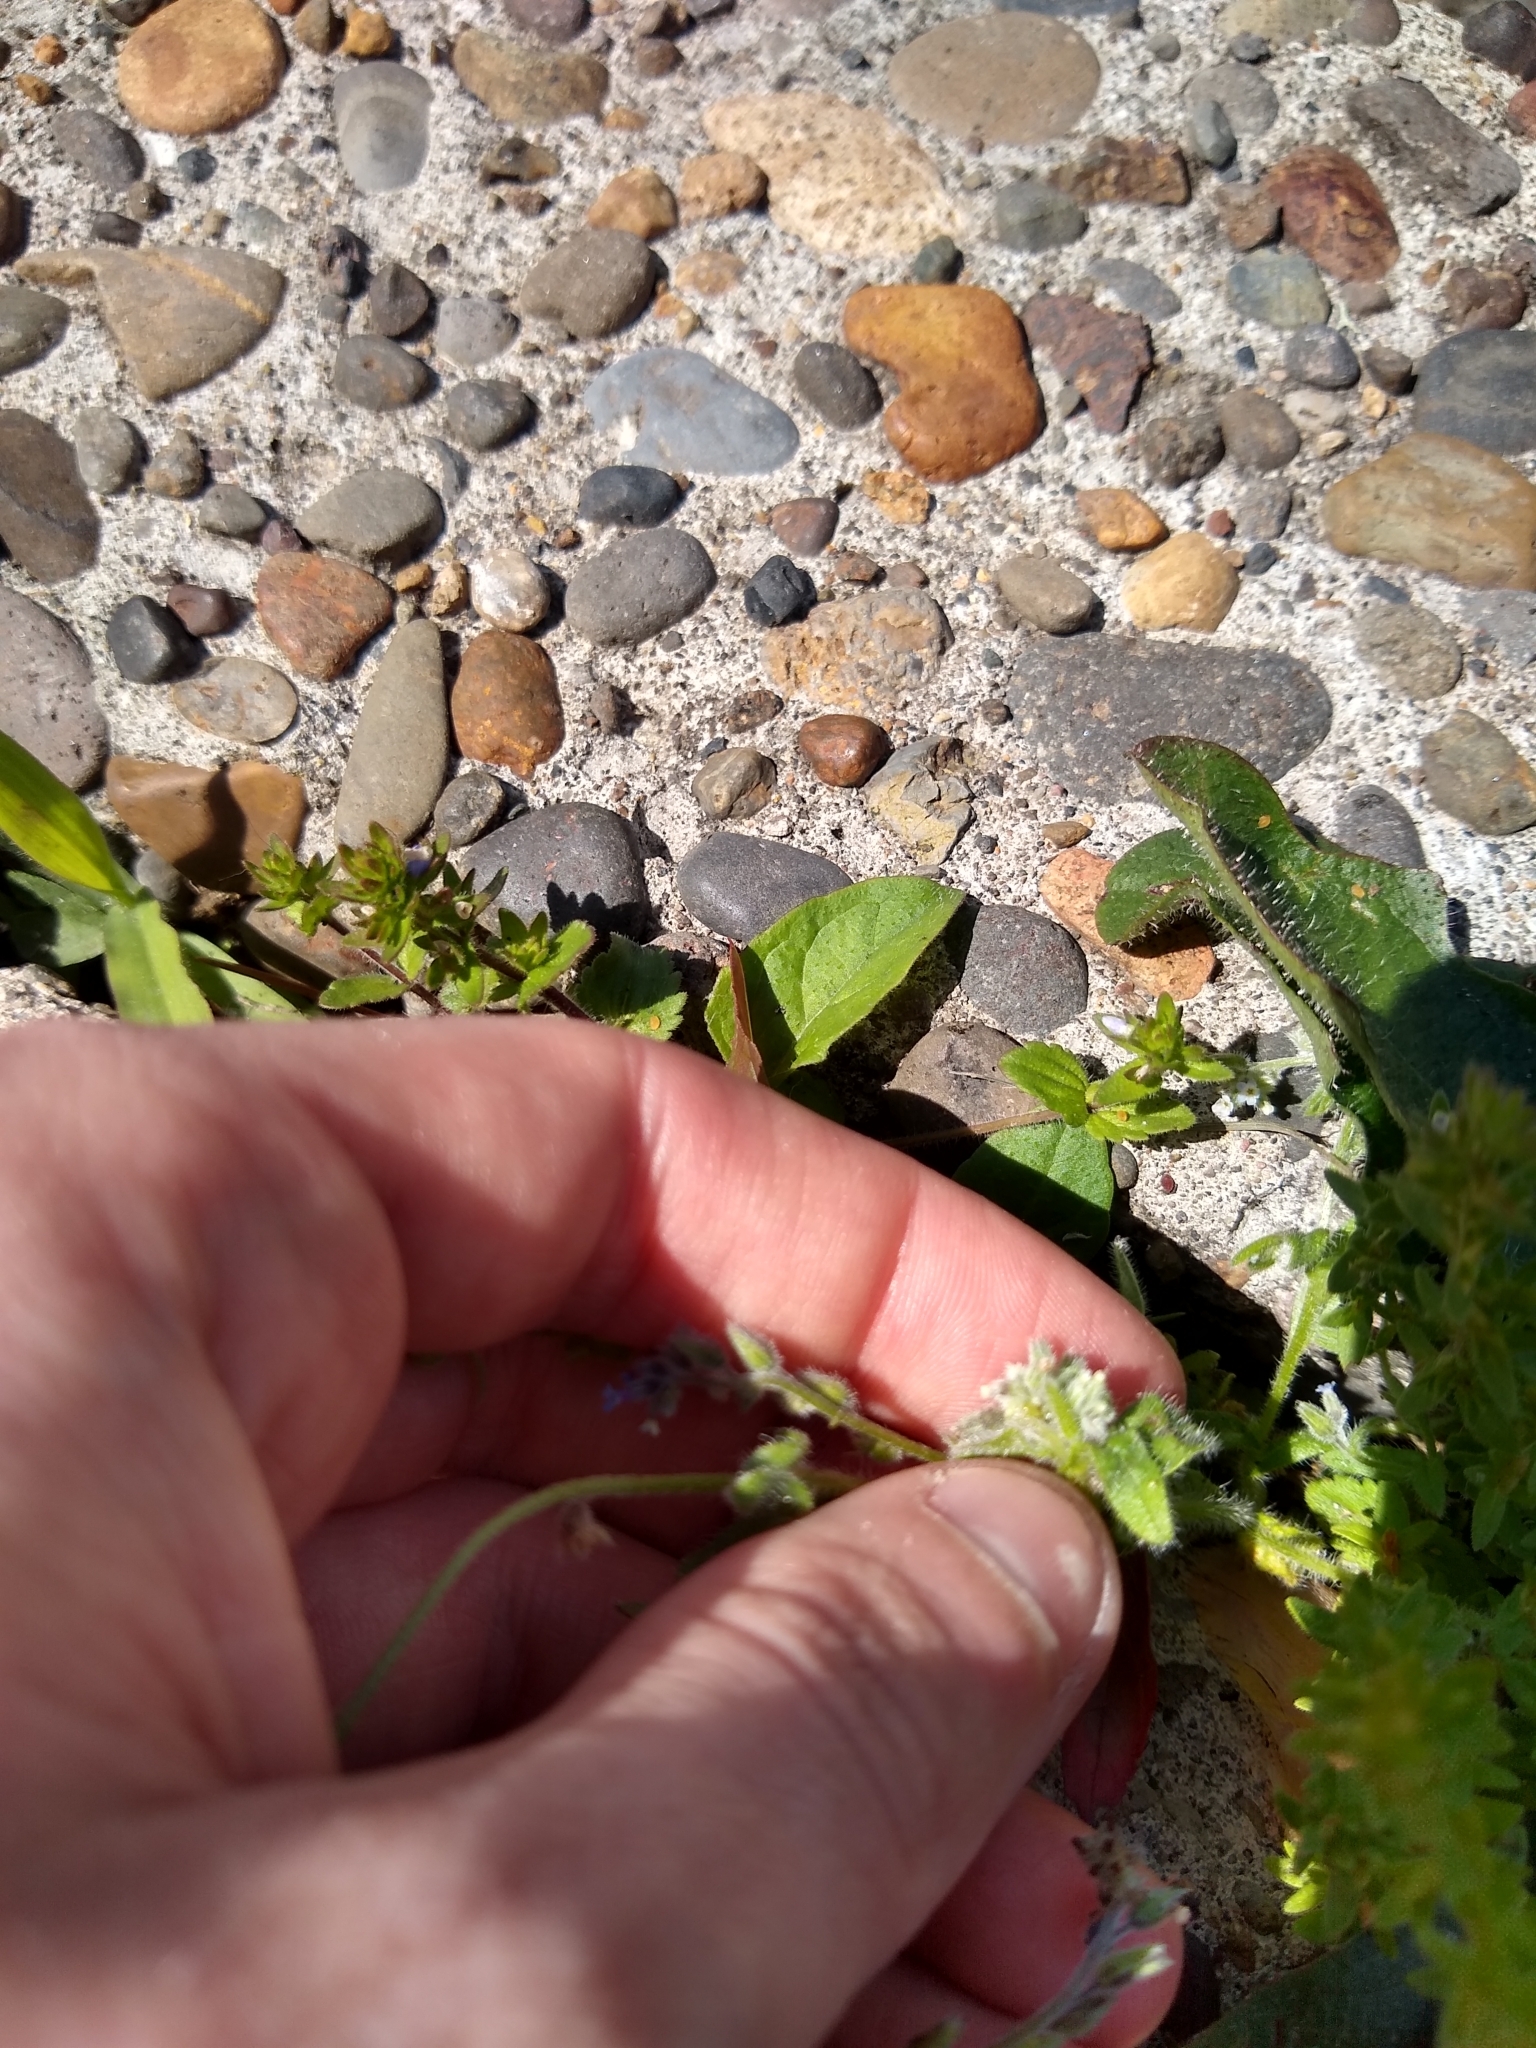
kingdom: Plantae
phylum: Tracheophyta
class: Magnoliopsida
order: Boraginales
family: Boraginaceae
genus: Myosotis
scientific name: Myosotis discolor
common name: Changing forget-me-not
